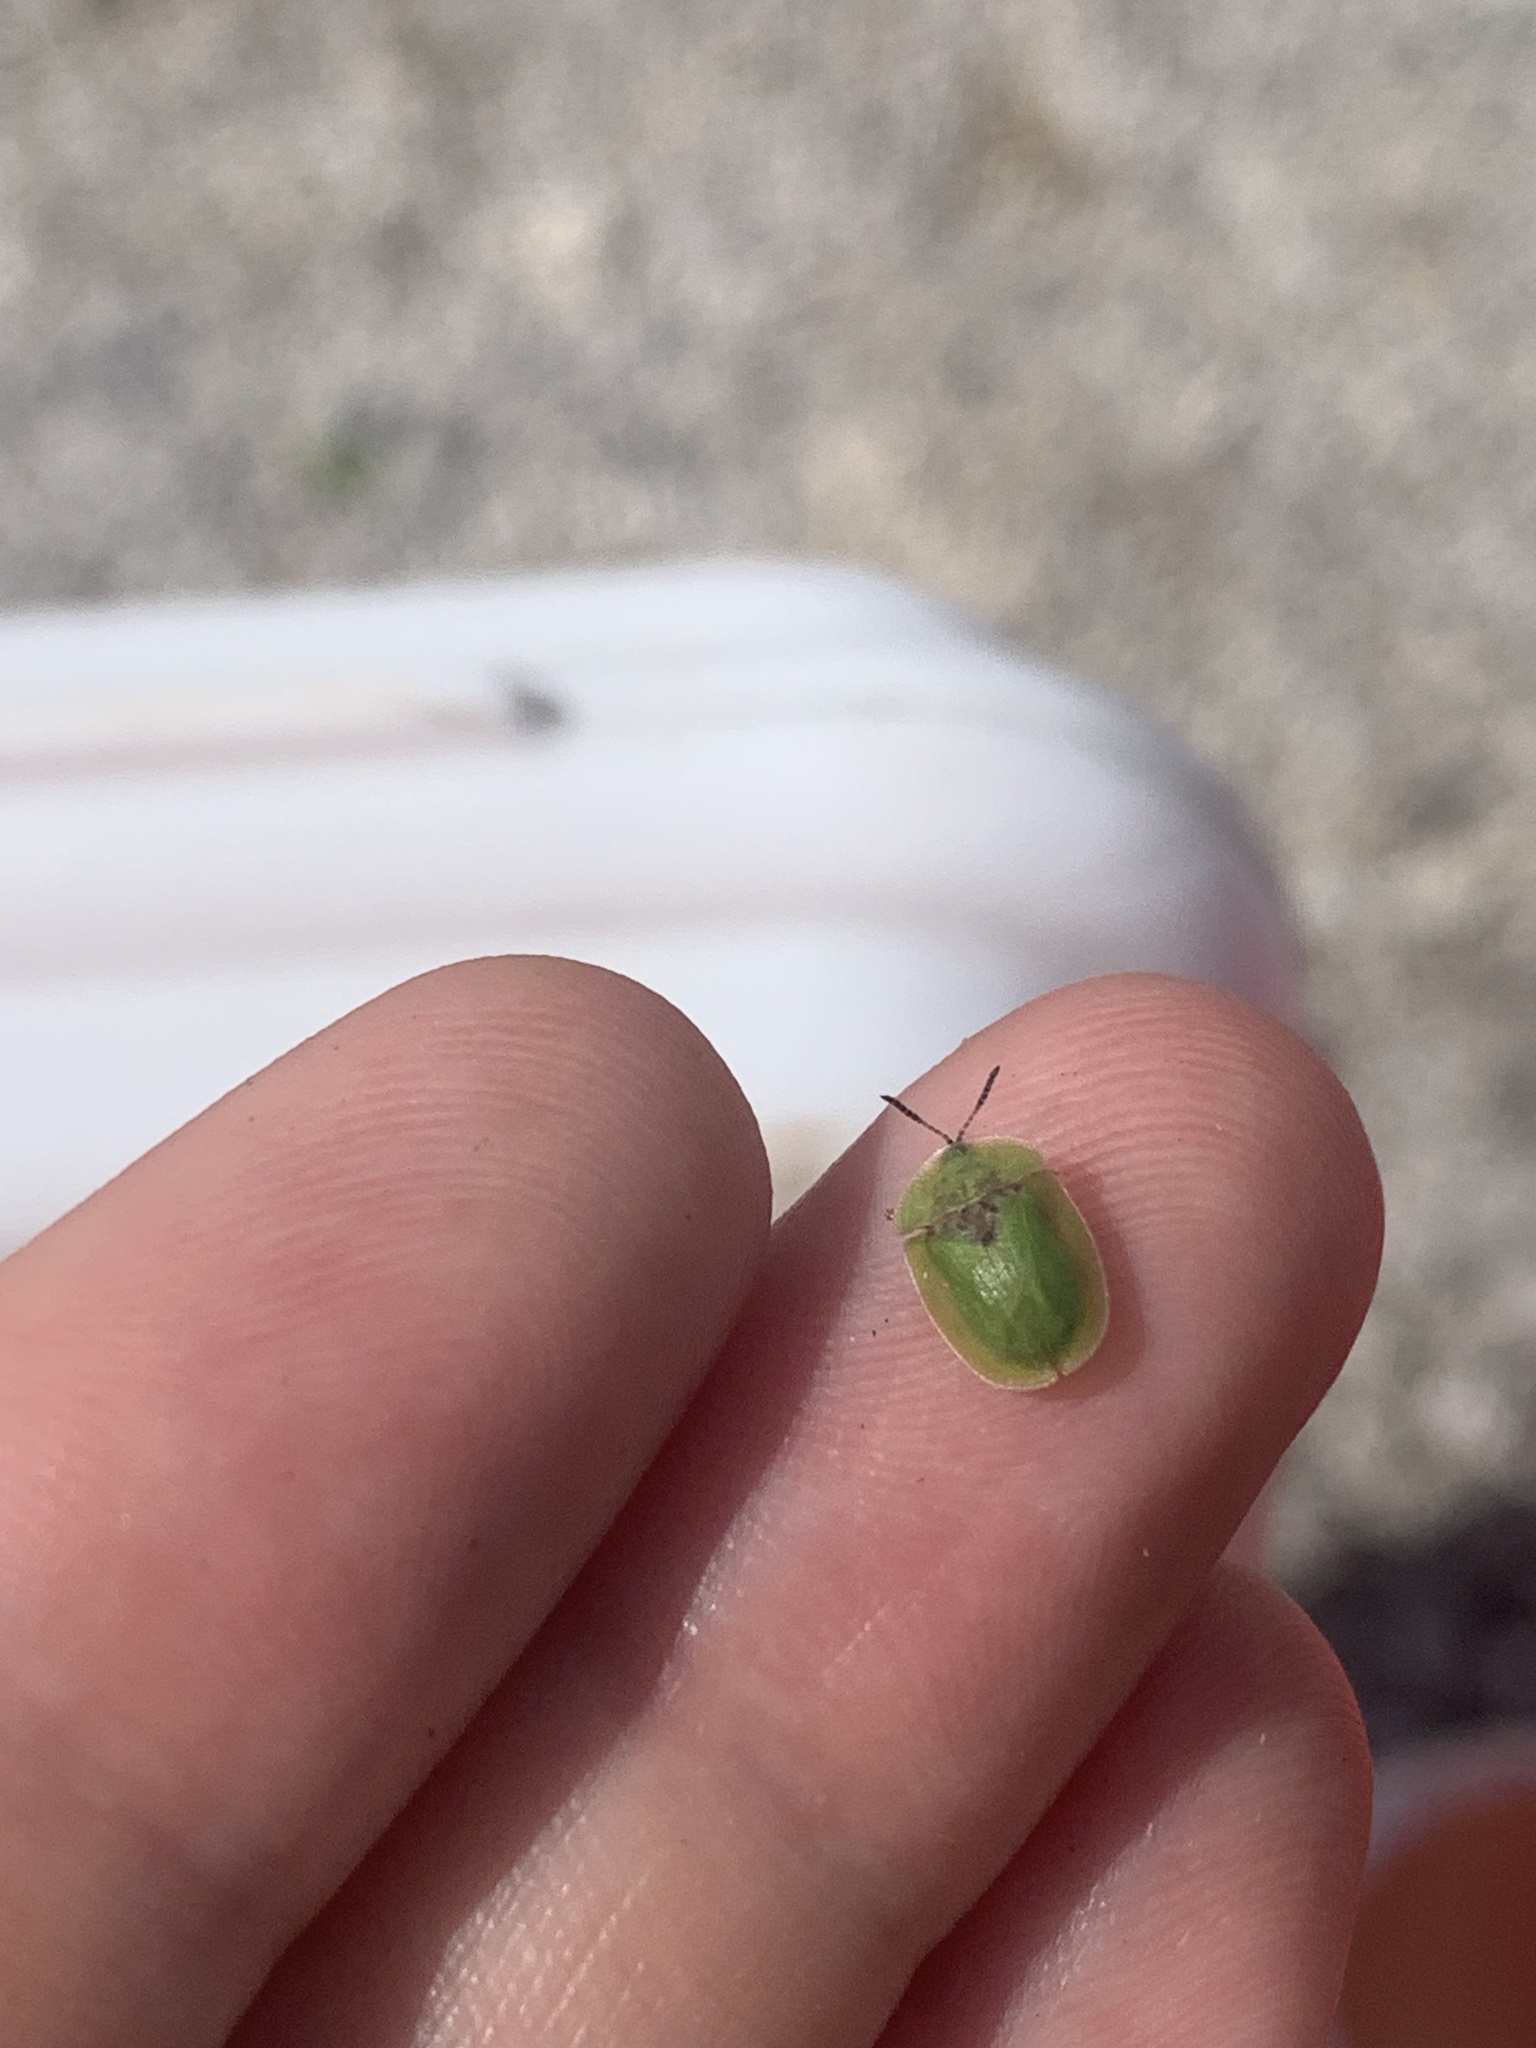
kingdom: Animalia
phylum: Arthropoda
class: Insecta
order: Coleoptera
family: Chrysomelidae
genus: Cassida
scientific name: Cassida rubiginosa
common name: Thistle tortoise beetle
